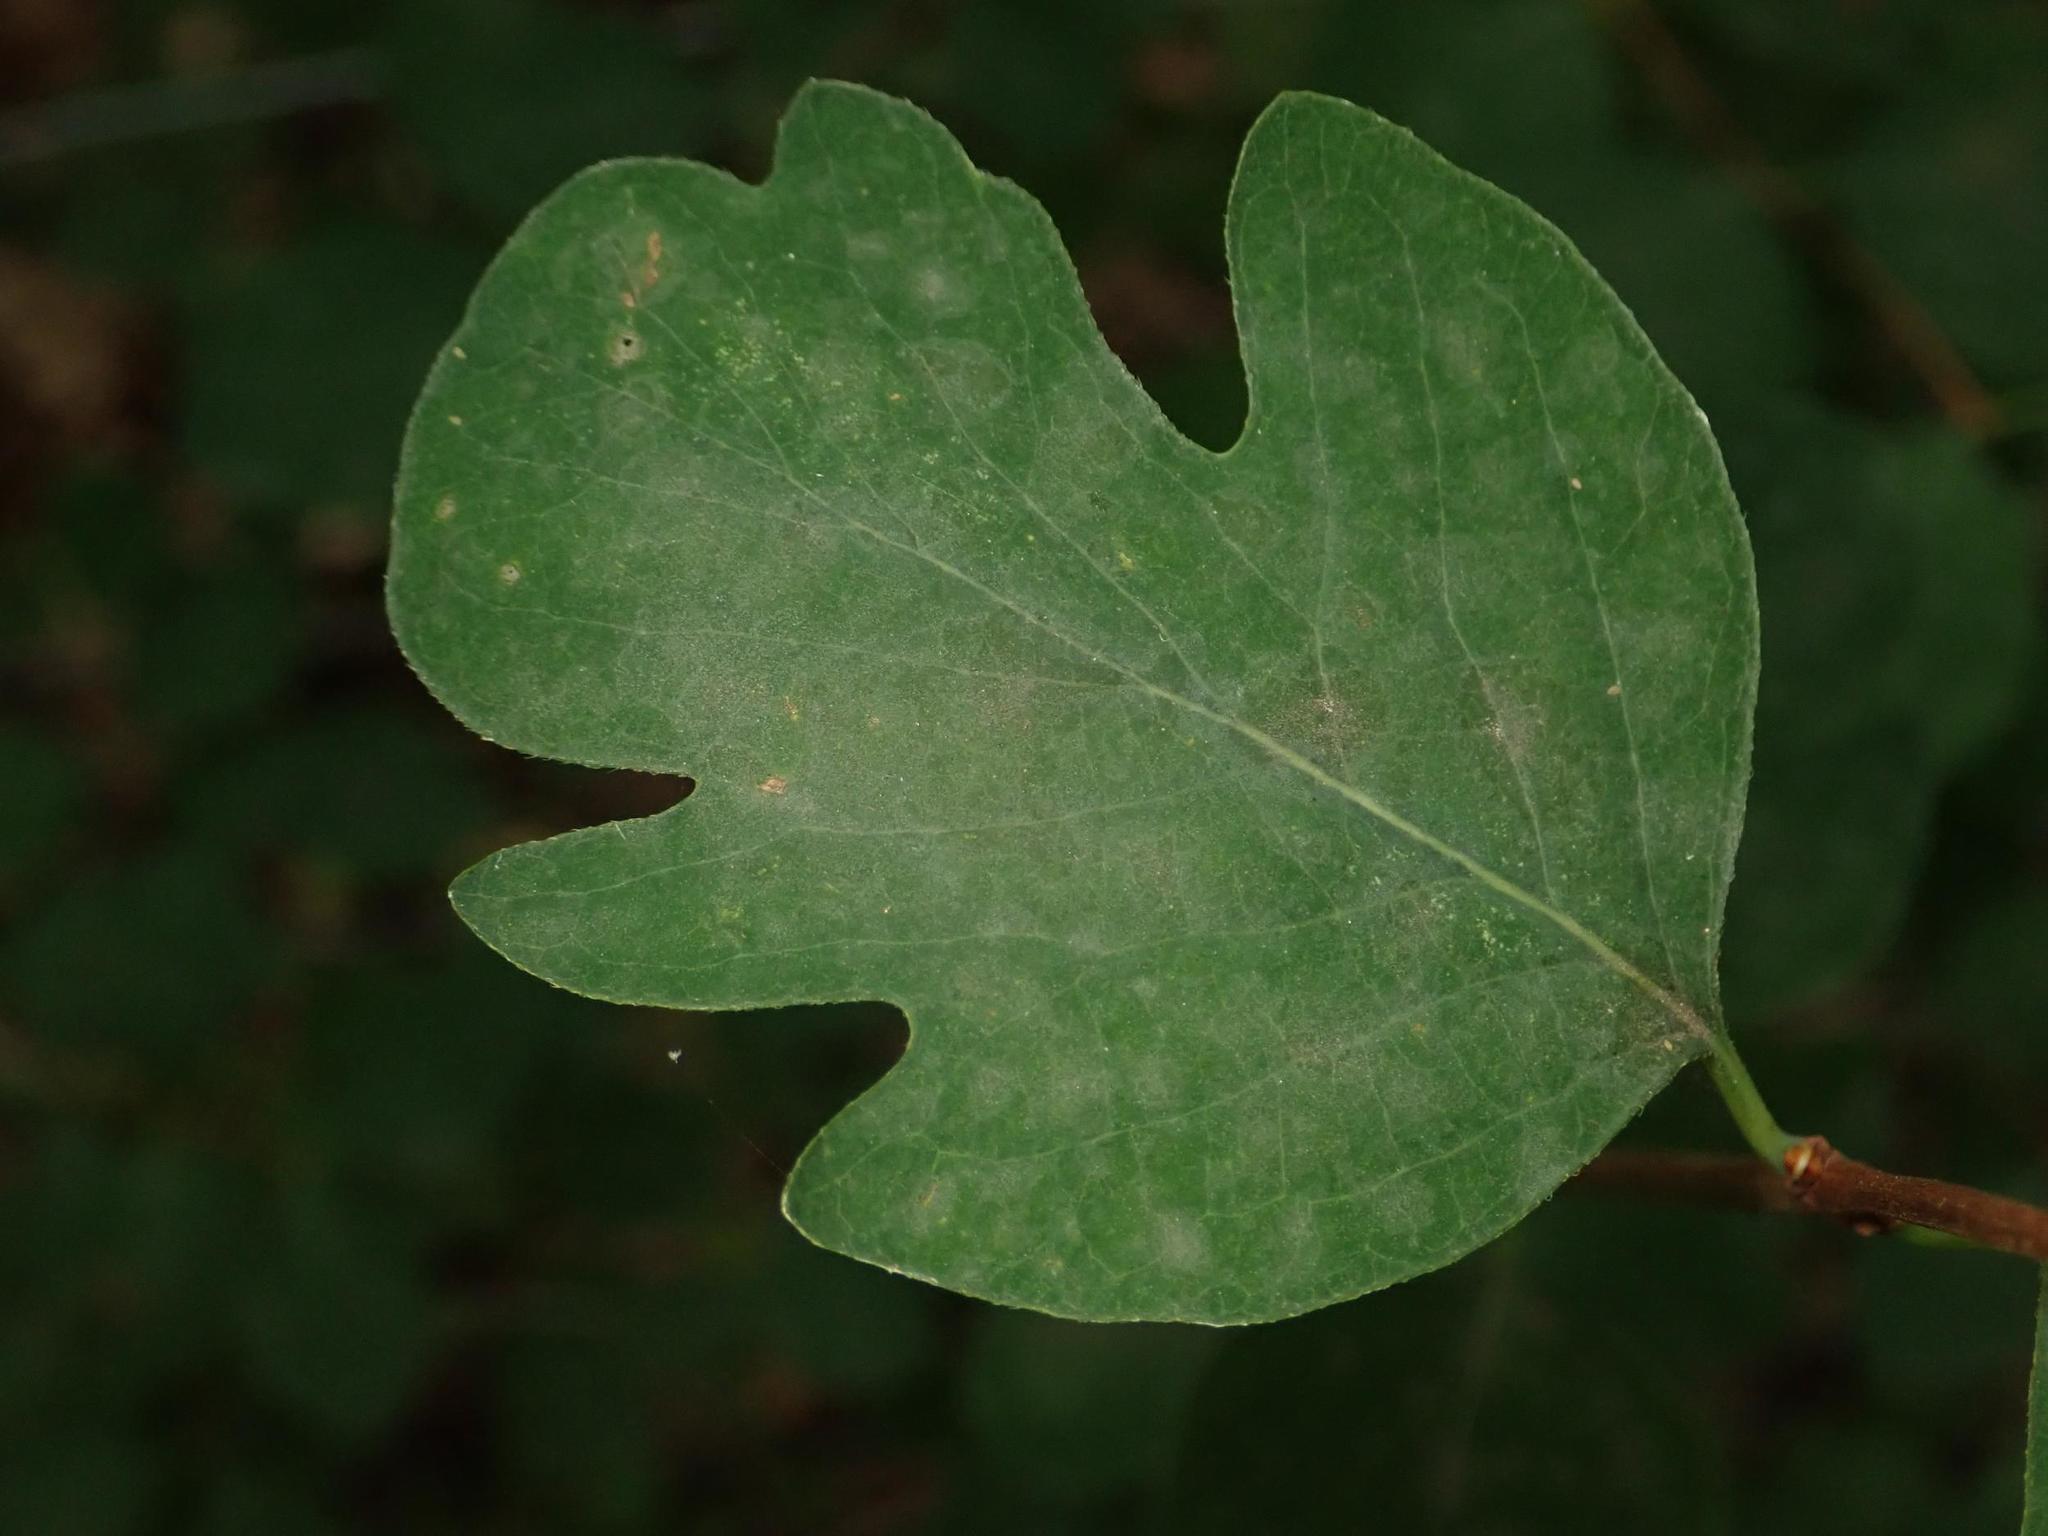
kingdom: Plantae
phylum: Tracheophyta
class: Magnoliopsida
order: Dipsacales
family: Caprifoliaceae
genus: Symphoricarpos
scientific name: Symphoricarpos albus
